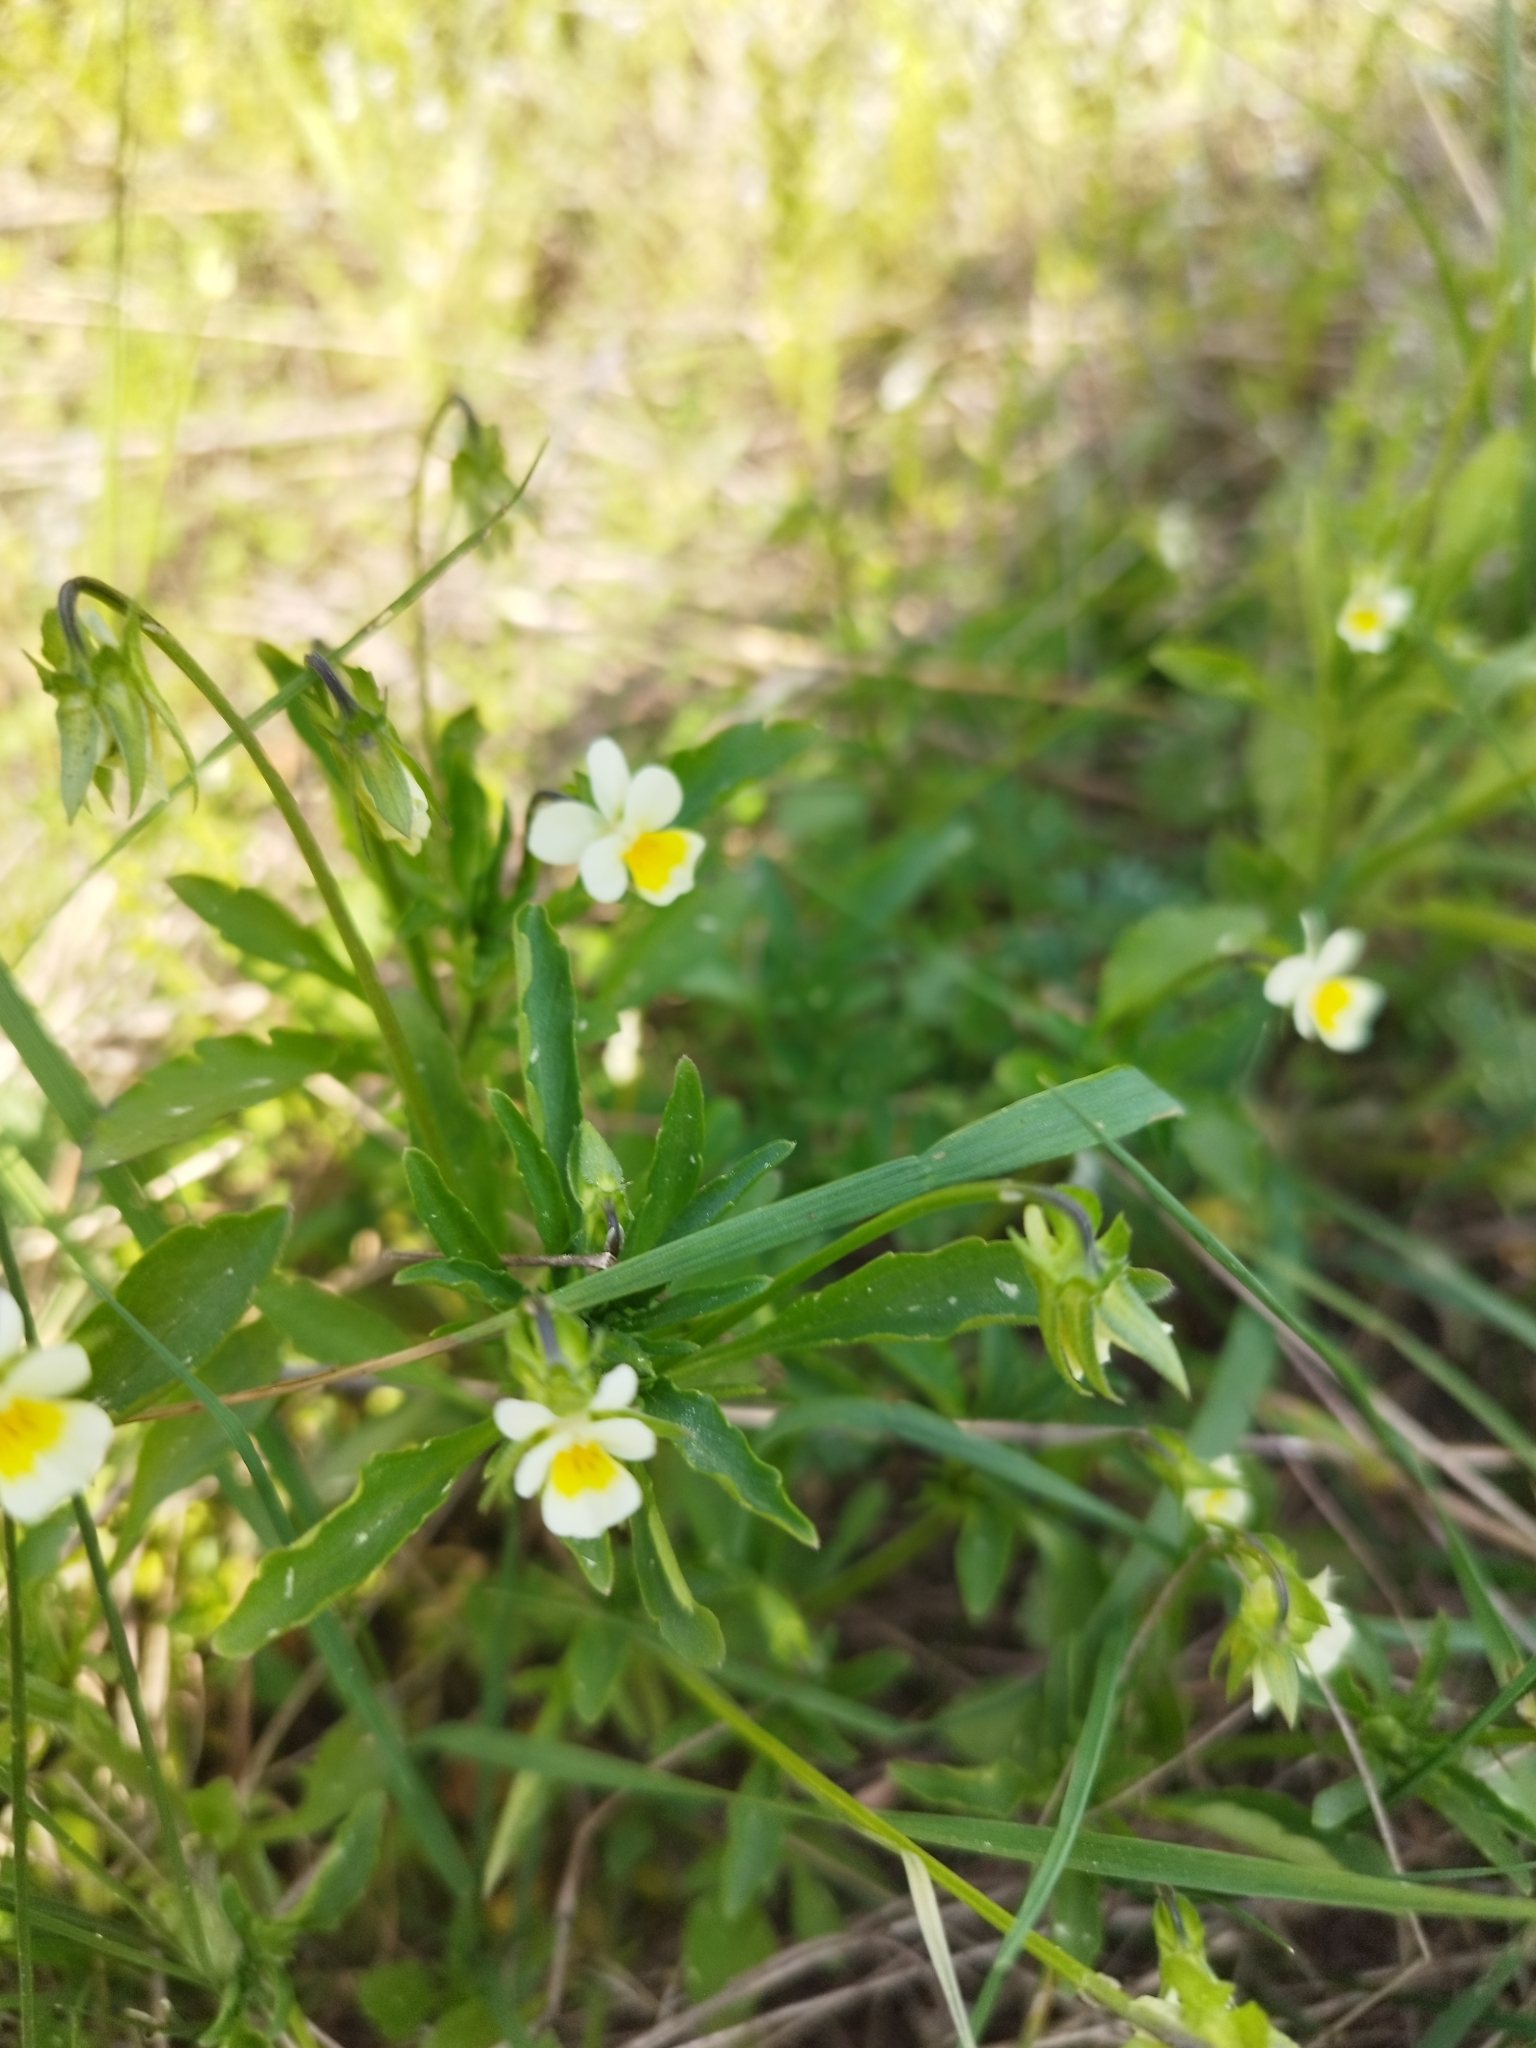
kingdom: Plantae
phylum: Tracheophyta
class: Magnoliopsida
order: Malpighiales
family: Violaceae
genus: Viola
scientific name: Viola arvensis
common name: Field pansy
